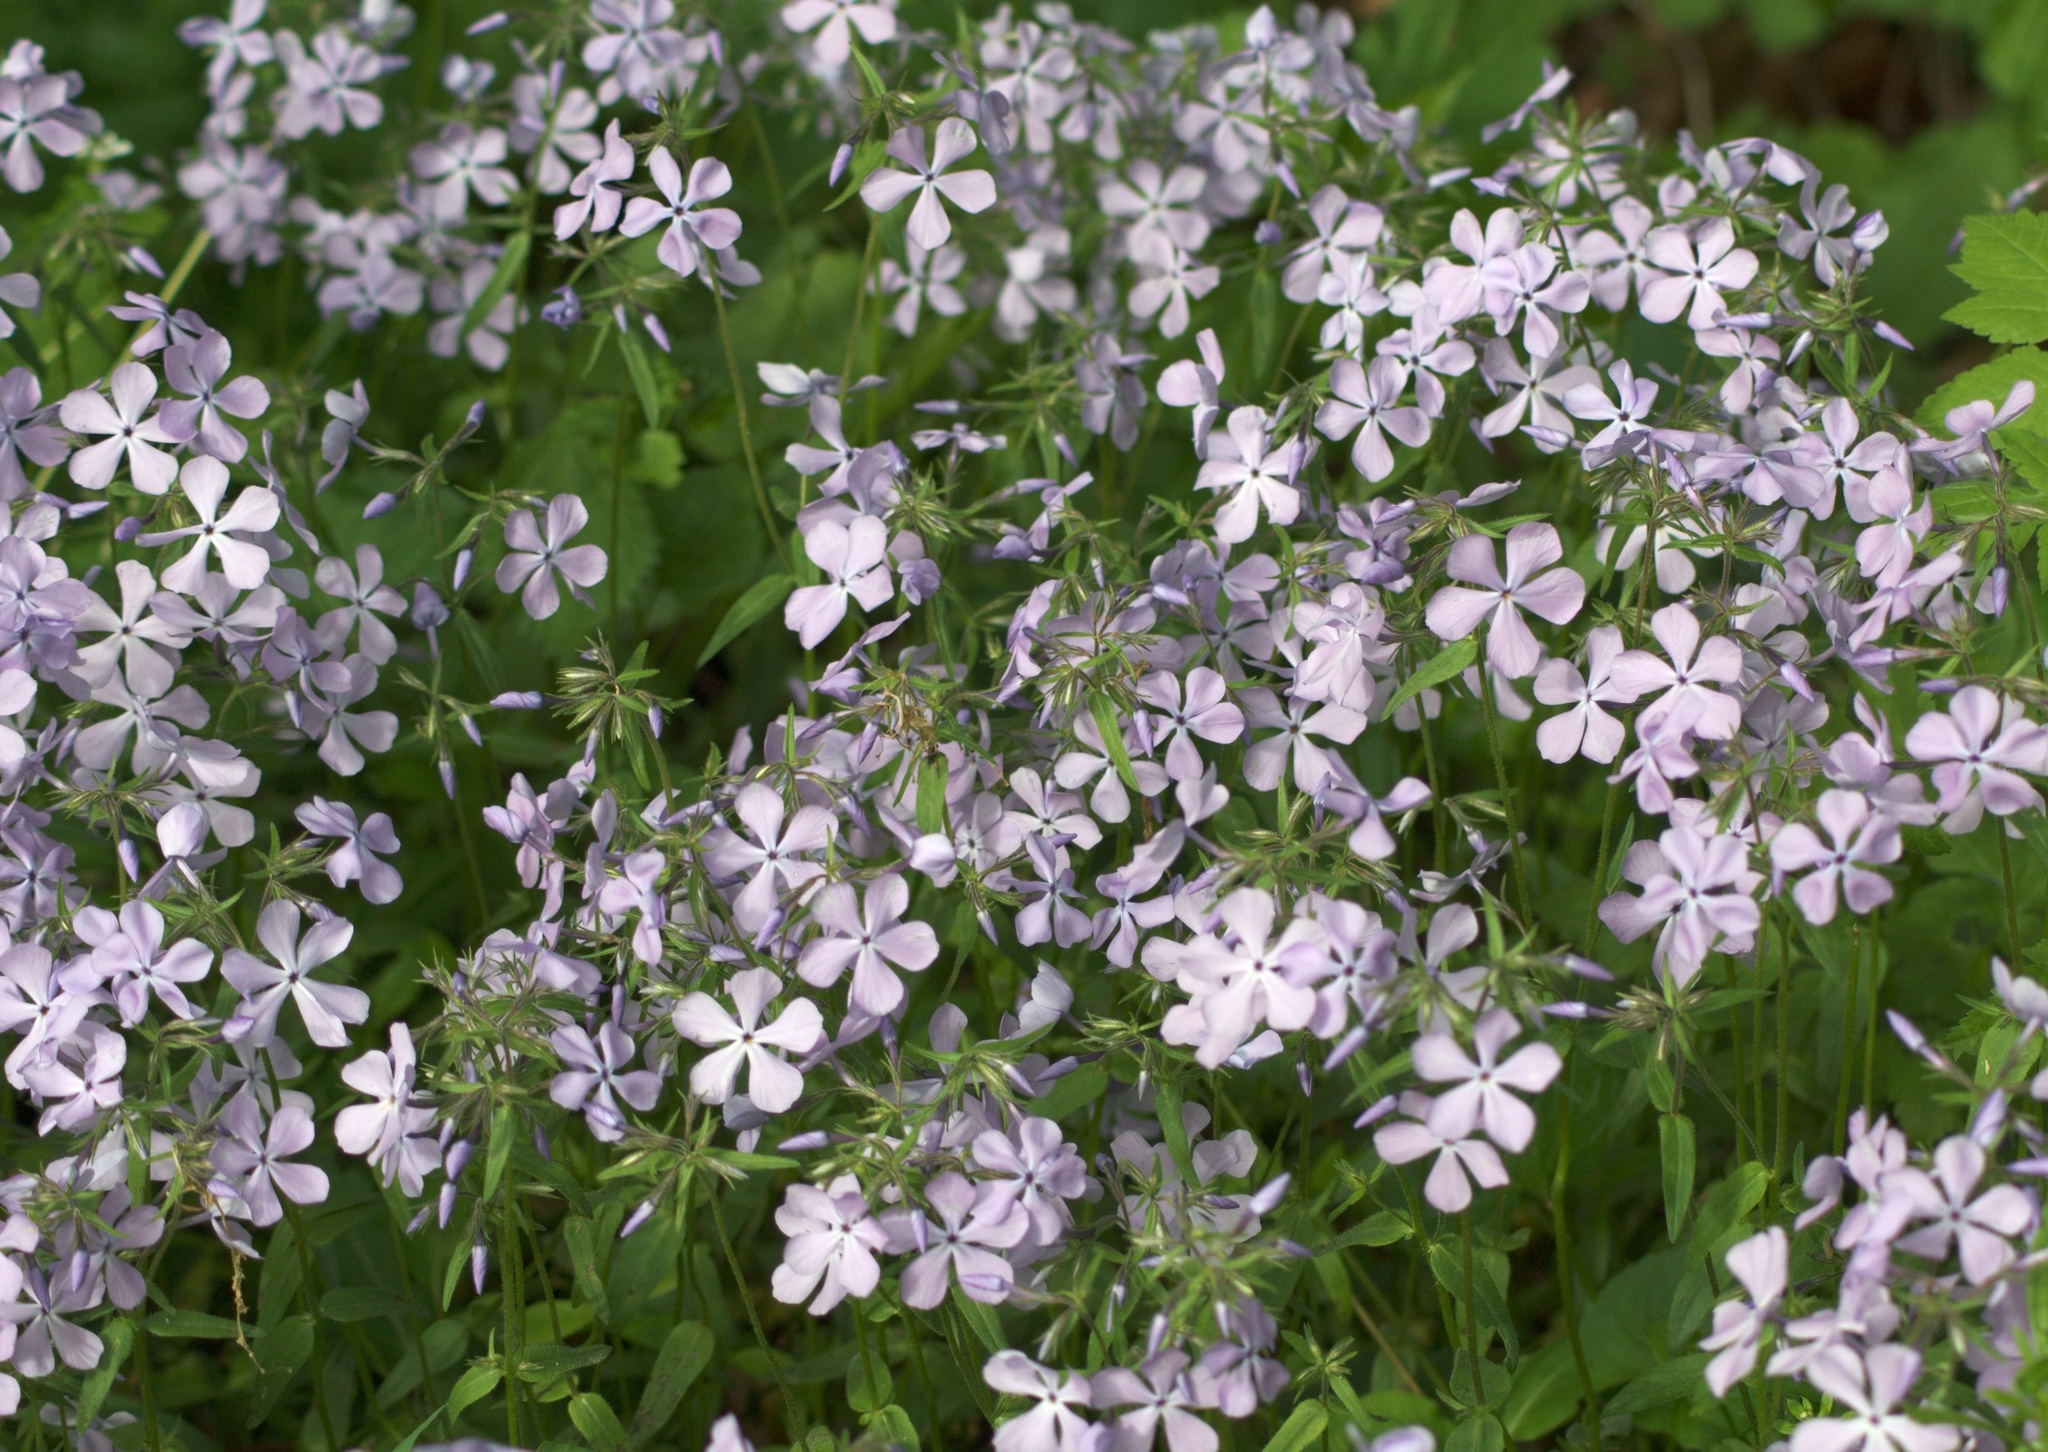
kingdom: Plantae
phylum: Tracheophyta
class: Magnoliopsida
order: Ericales
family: Polemoniaceae
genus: Phlox
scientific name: Phlox divaricata
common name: Blue phlox
